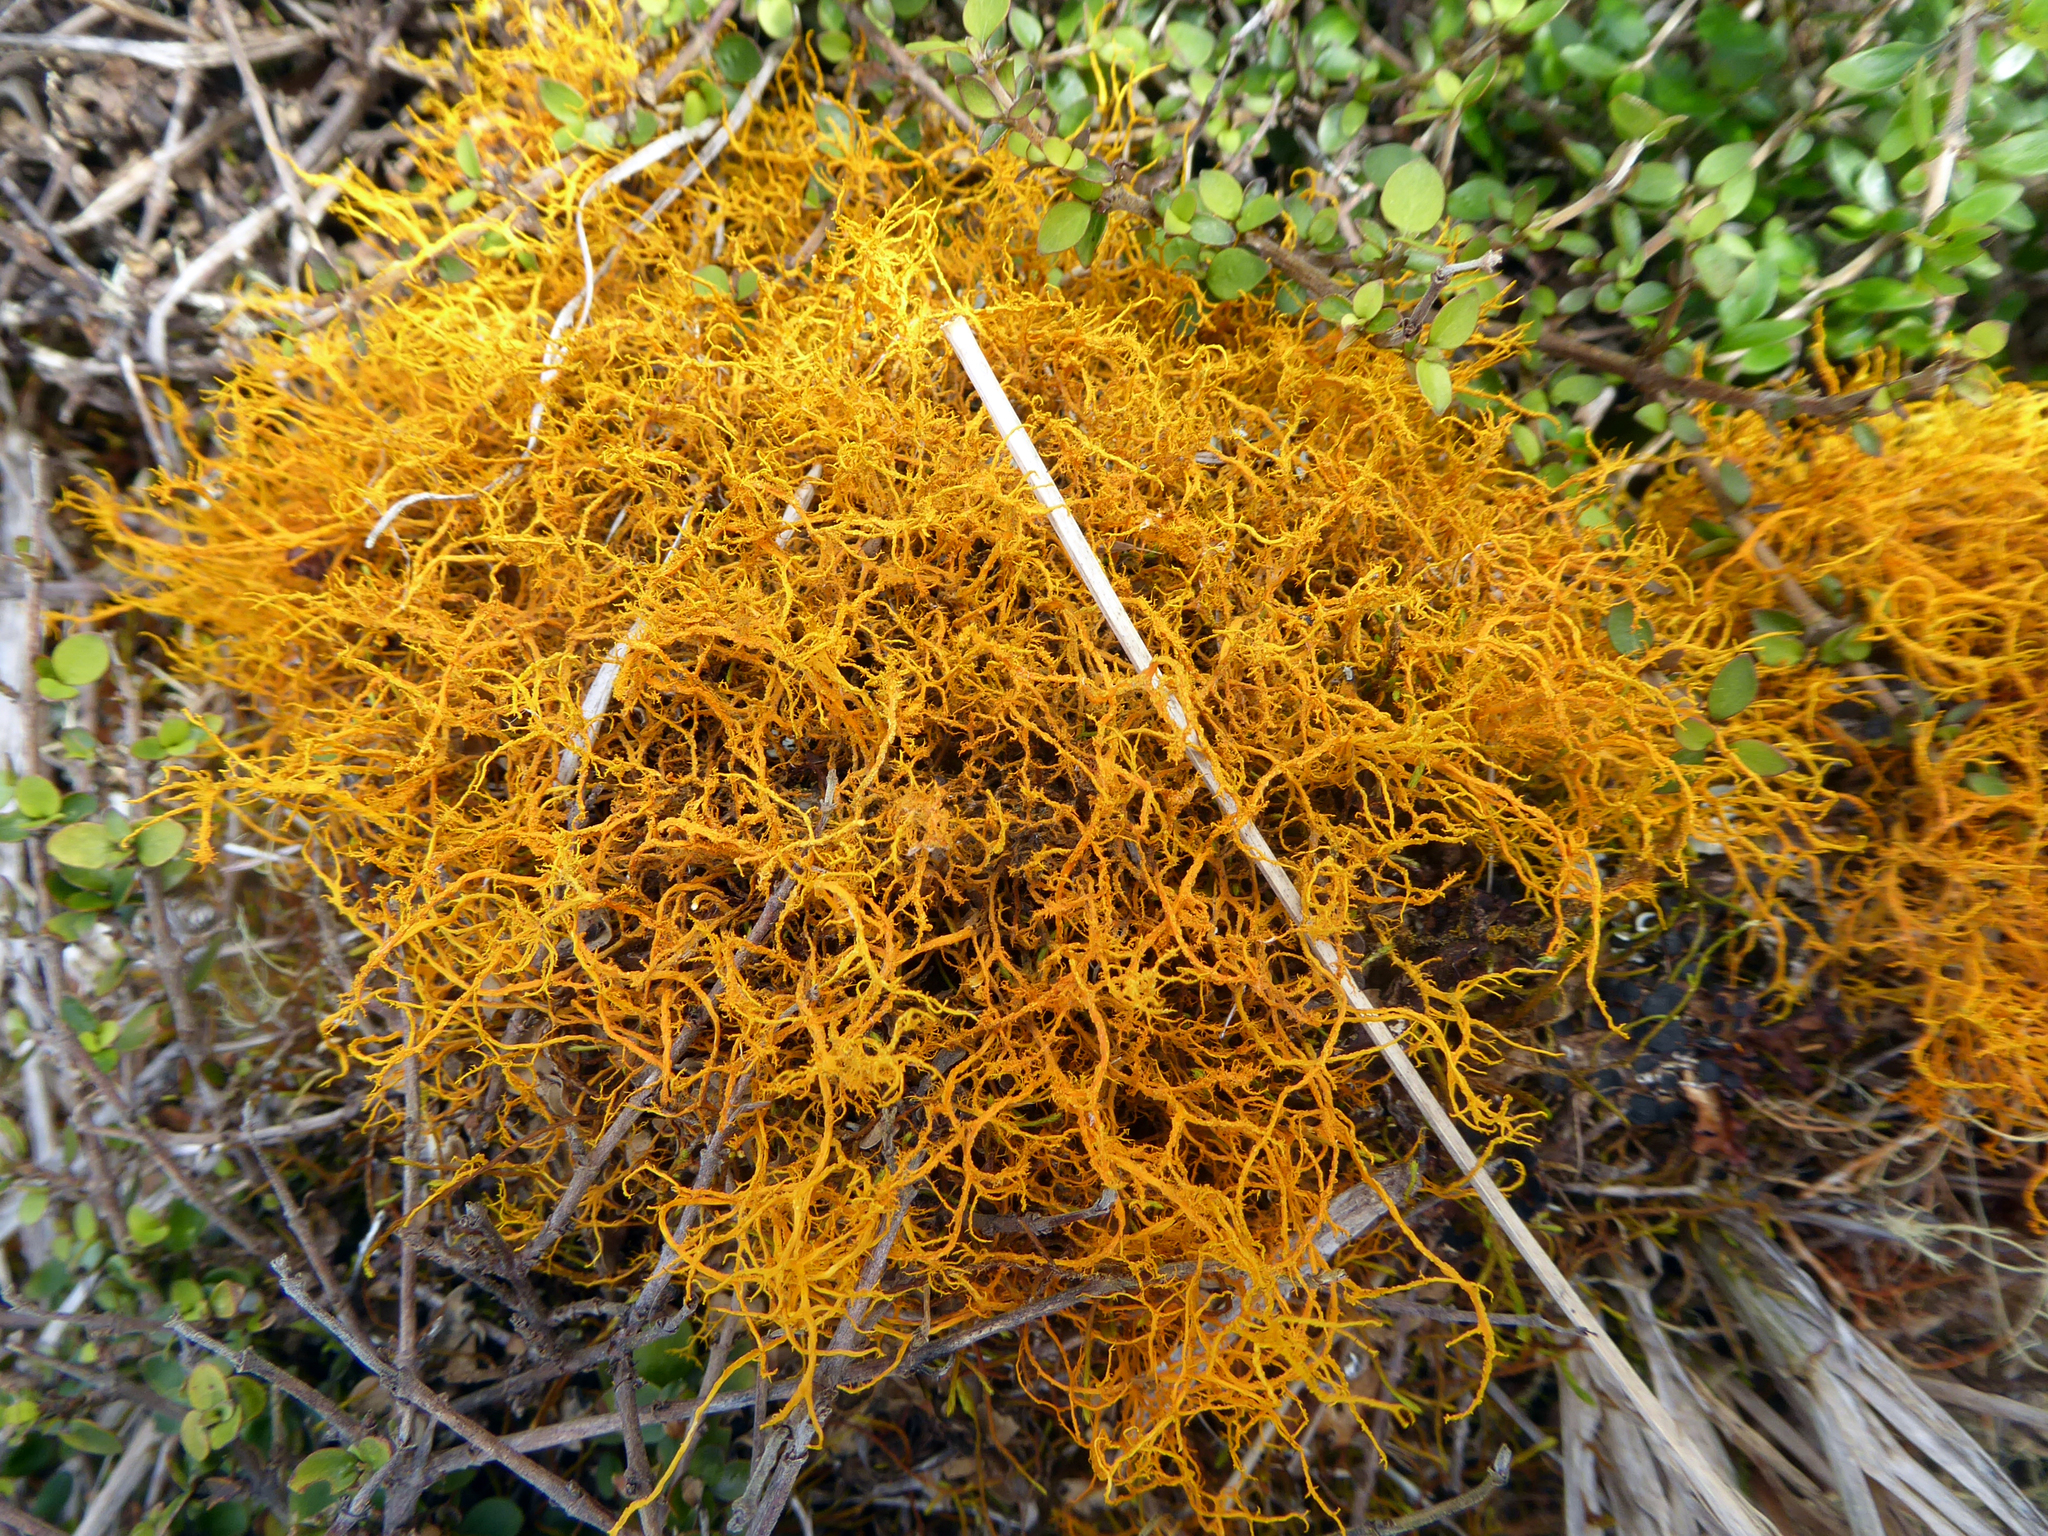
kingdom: Fungi
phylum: Ascomycota
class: Lecanoromycetes
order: Teloschistales
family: Teloschistaceae
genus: Teloschistes
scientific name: Teloschistes flavicans
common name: Golden hair-lichen
